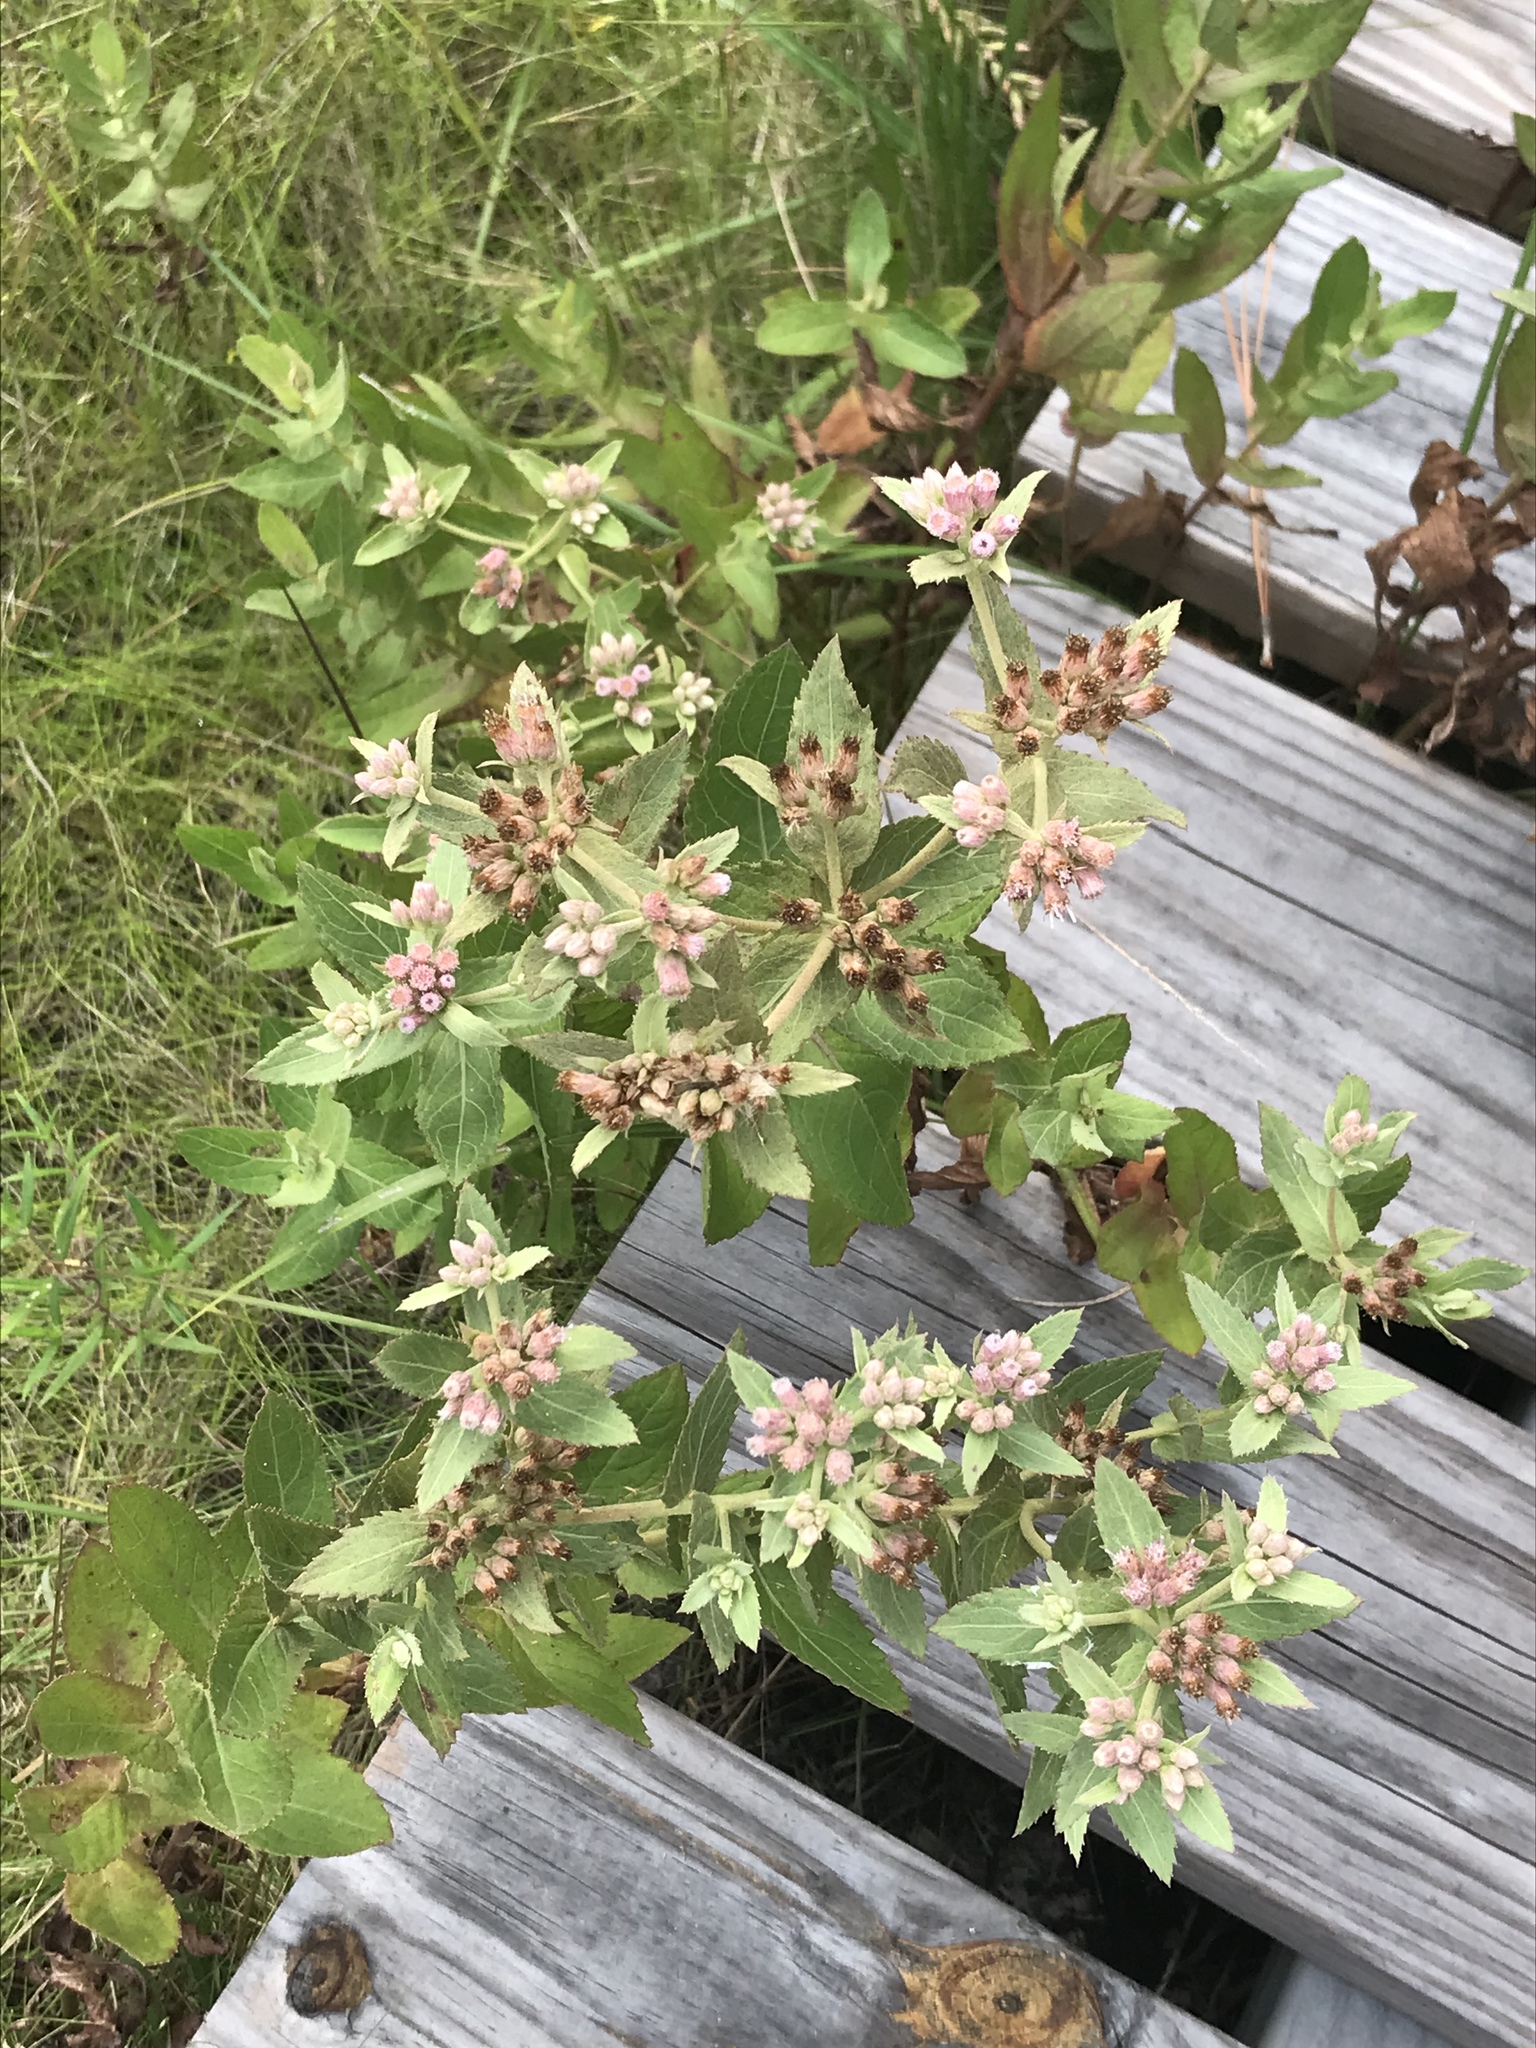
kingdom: Plantae
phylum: Tracheophyta
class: Magnoliopsida
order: Asterales
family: Asteraceae
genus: Pluchea
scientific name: Pluchea baccharis
